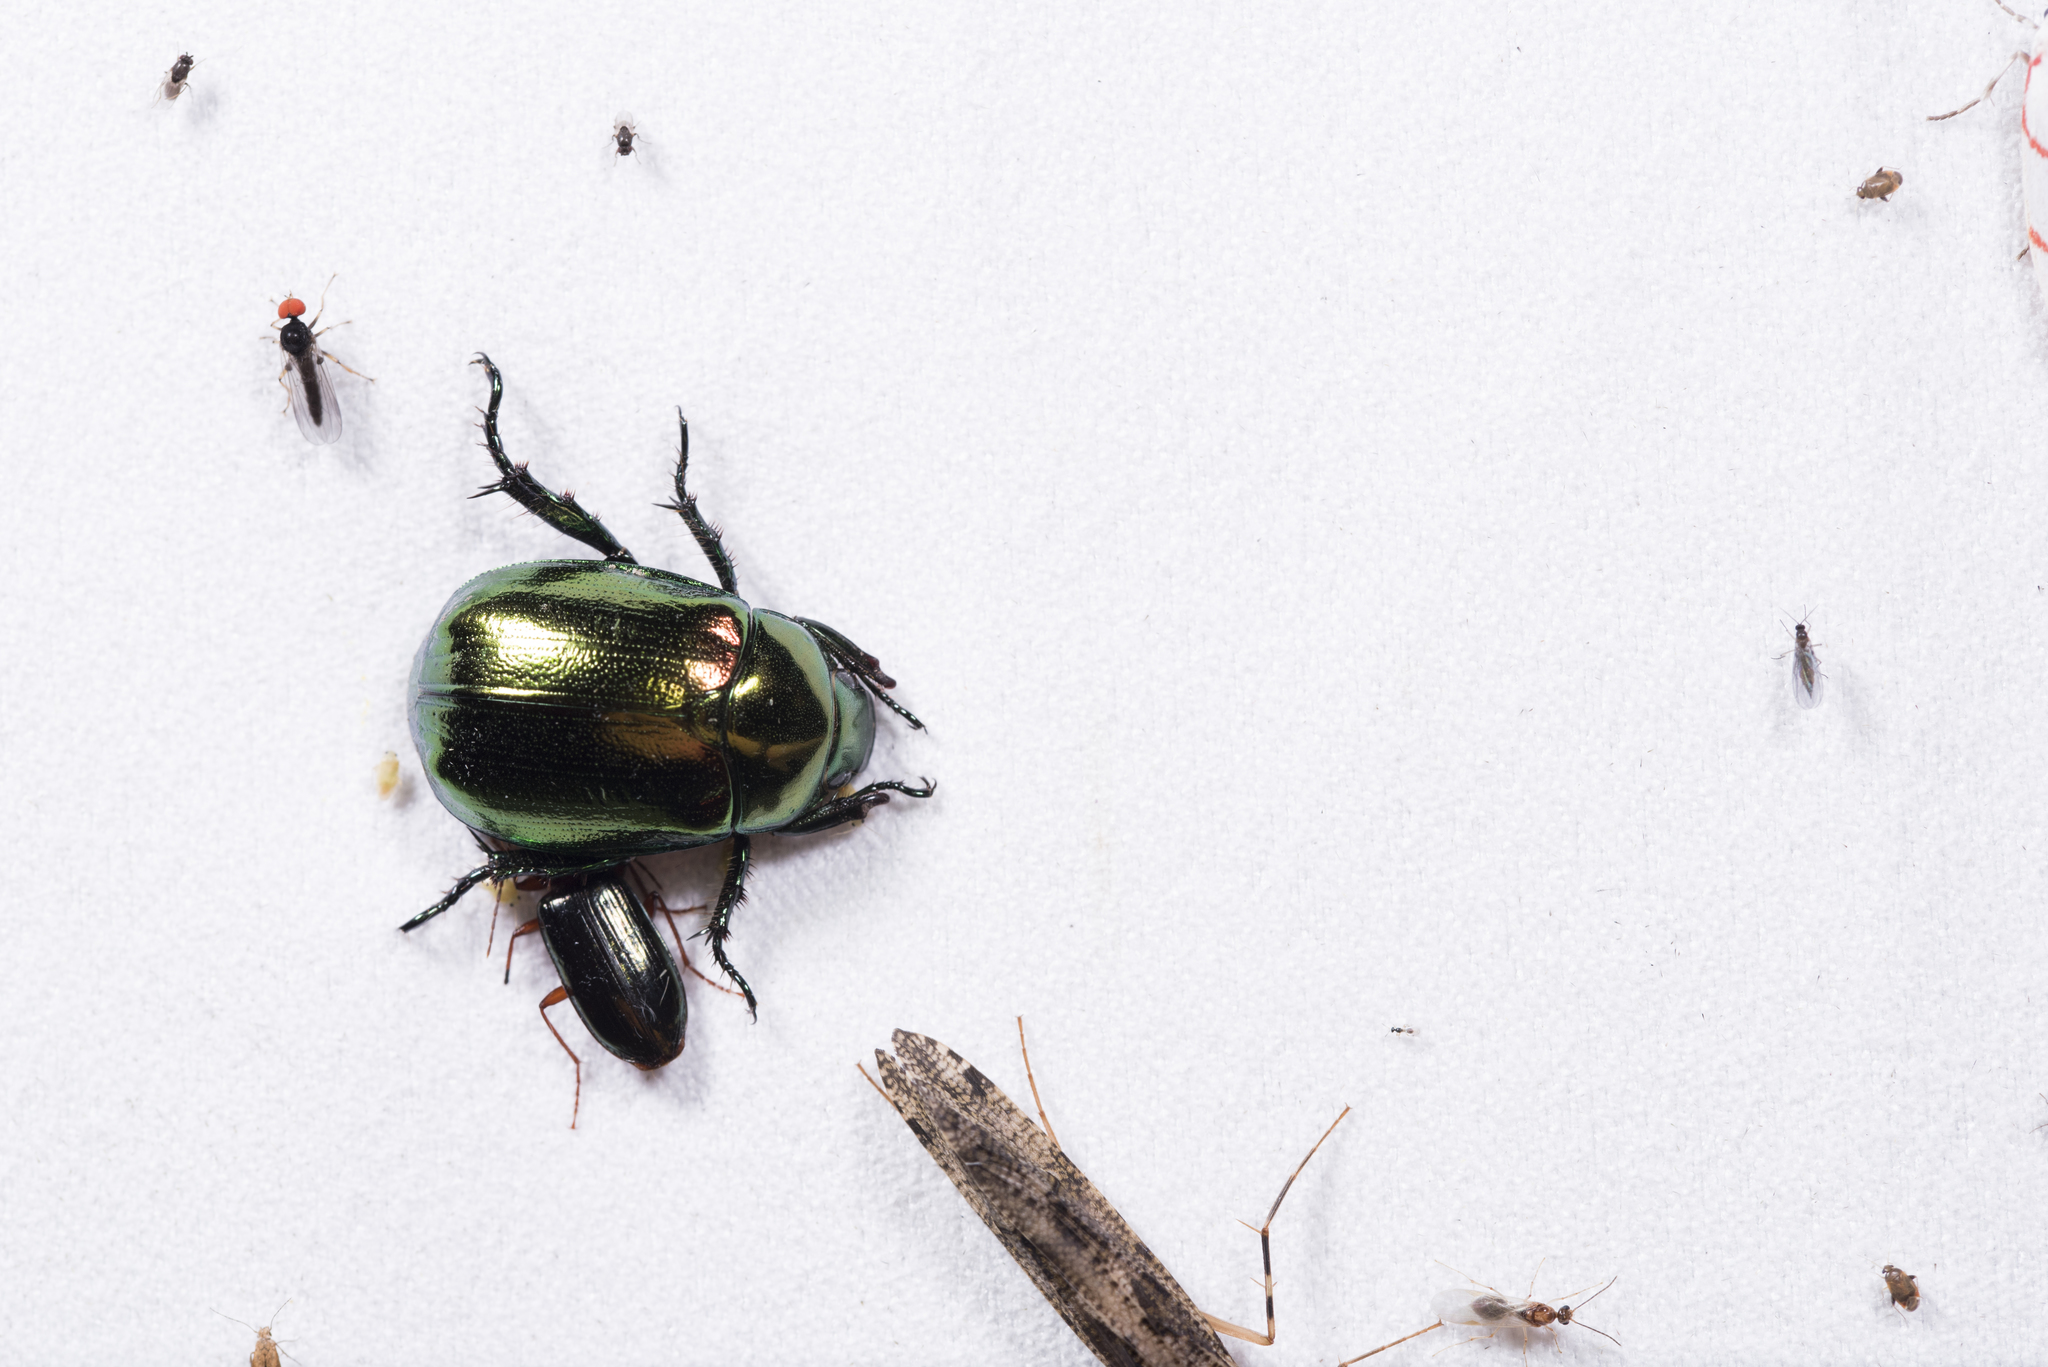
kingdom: Animalia
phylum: Arthropoda
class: Insecta
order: Coleoptera
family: Scarabaeidae
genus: Mimela
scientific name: Mimela splendens
